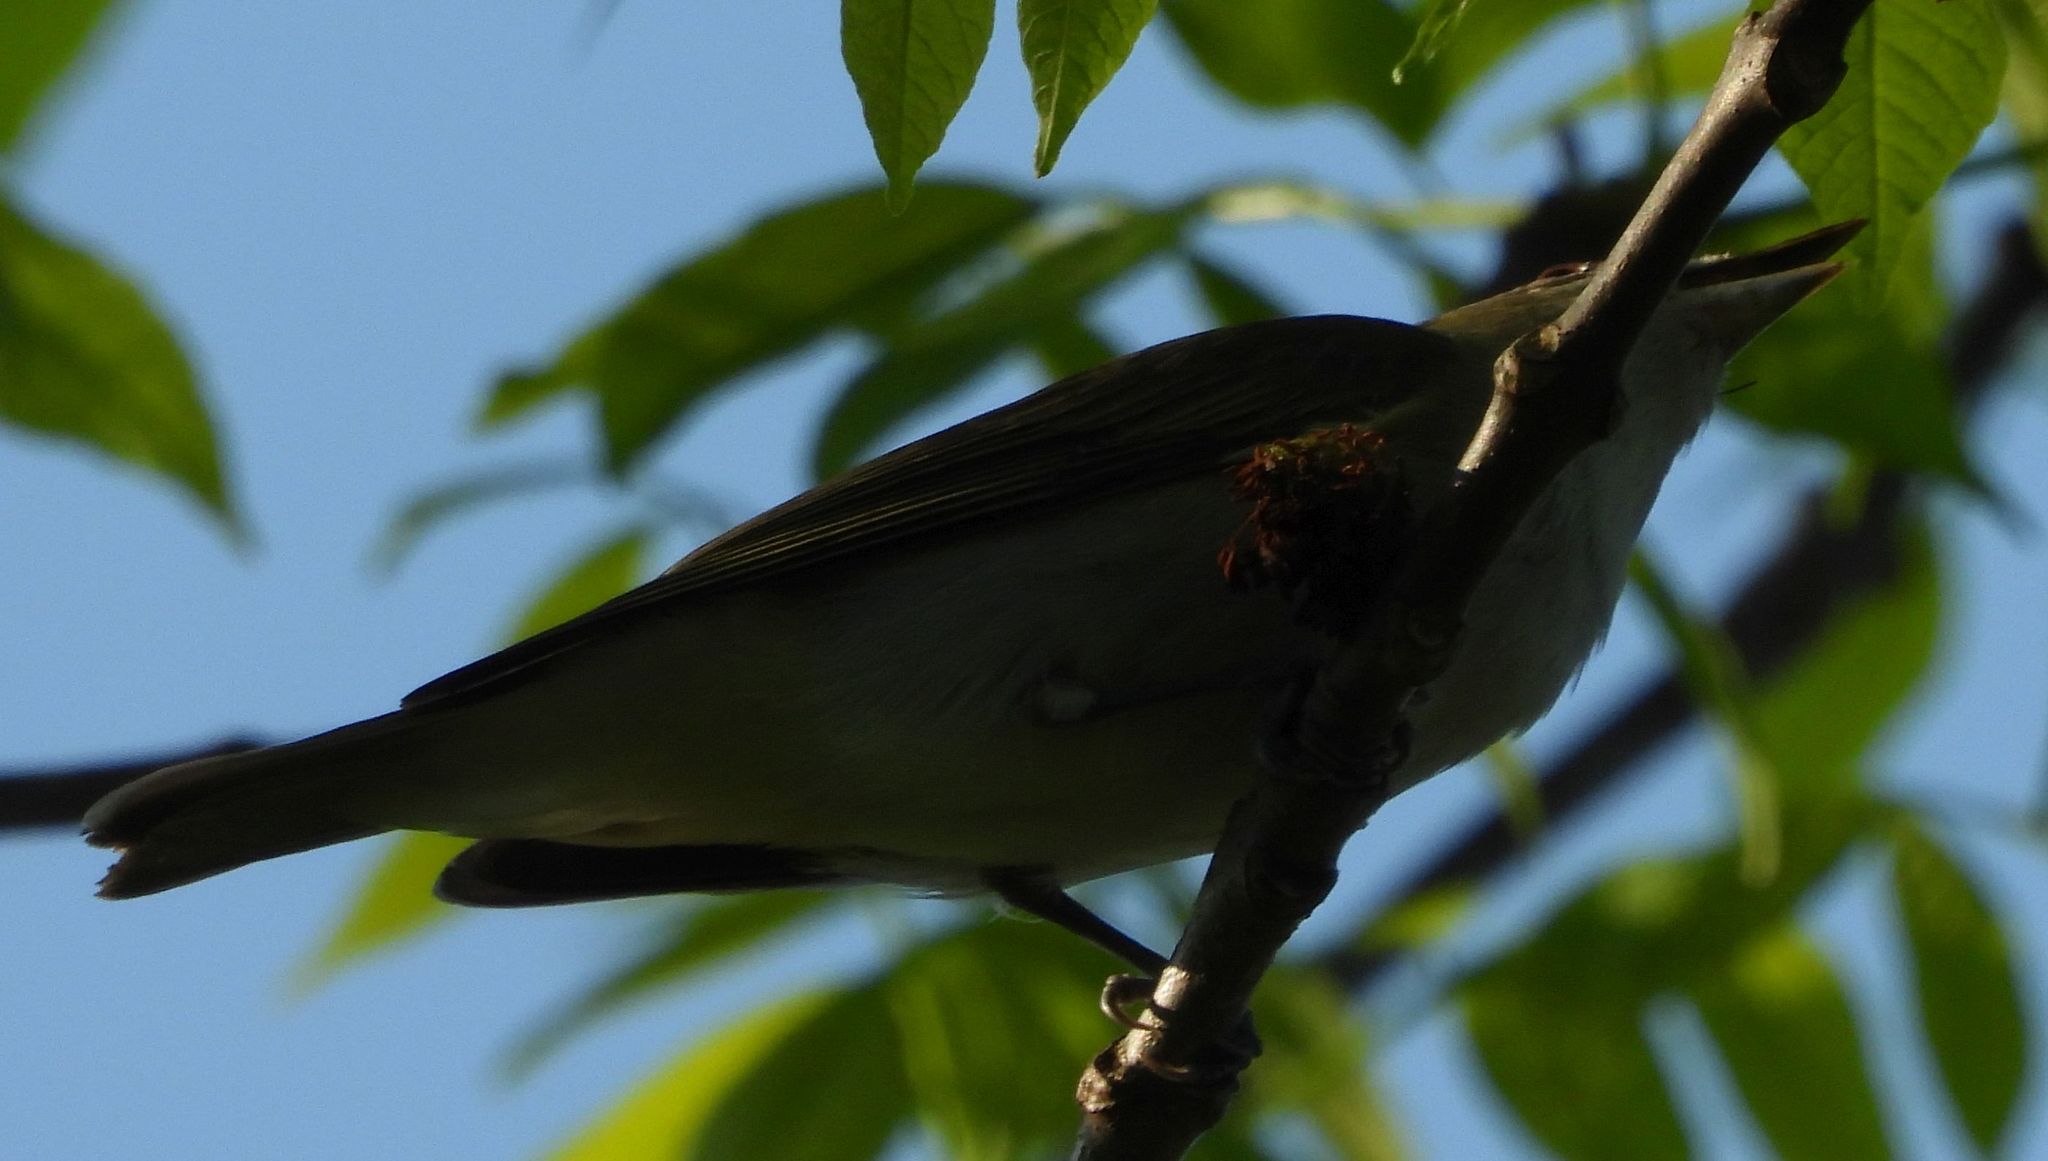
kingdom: Animalia
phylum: Chordata
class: Aves
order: Passeriformes
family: Vireonidae
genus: Vireo
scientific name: Vireo olivaceus
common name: Red-eyed vireo
